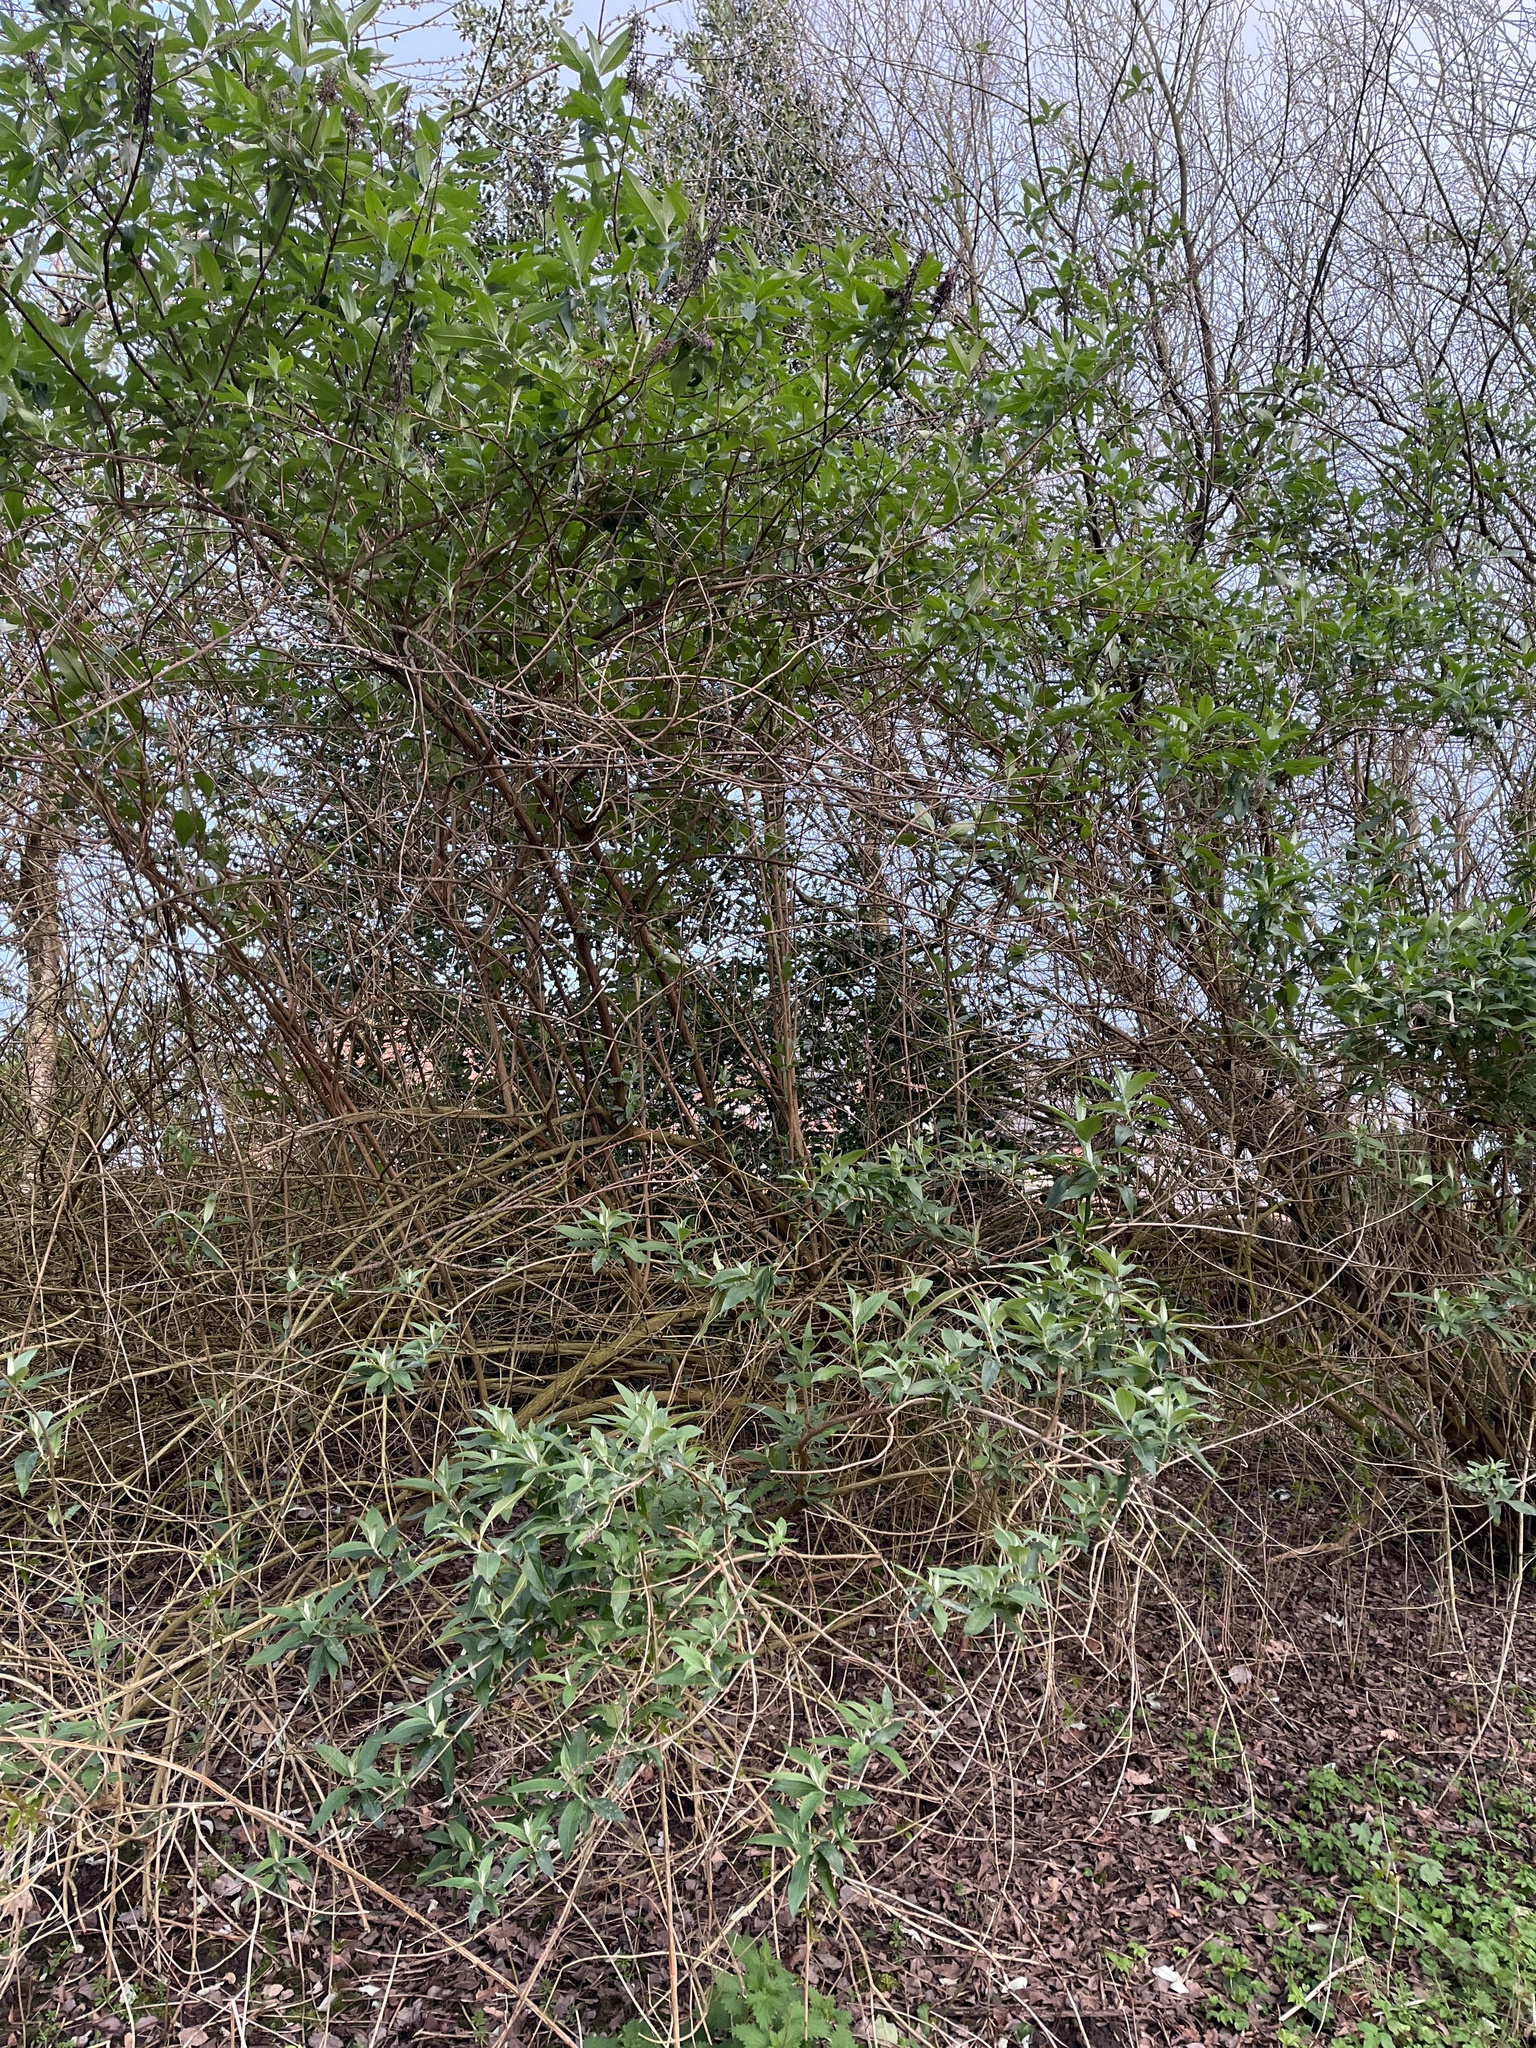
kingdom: Plantae
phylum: Tracheophyta
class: Magnoliopsida
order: Lamiales
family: Scrophulariaceae
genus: Buddleja
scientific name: Buddleja davidii
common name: Butterfly-bush
